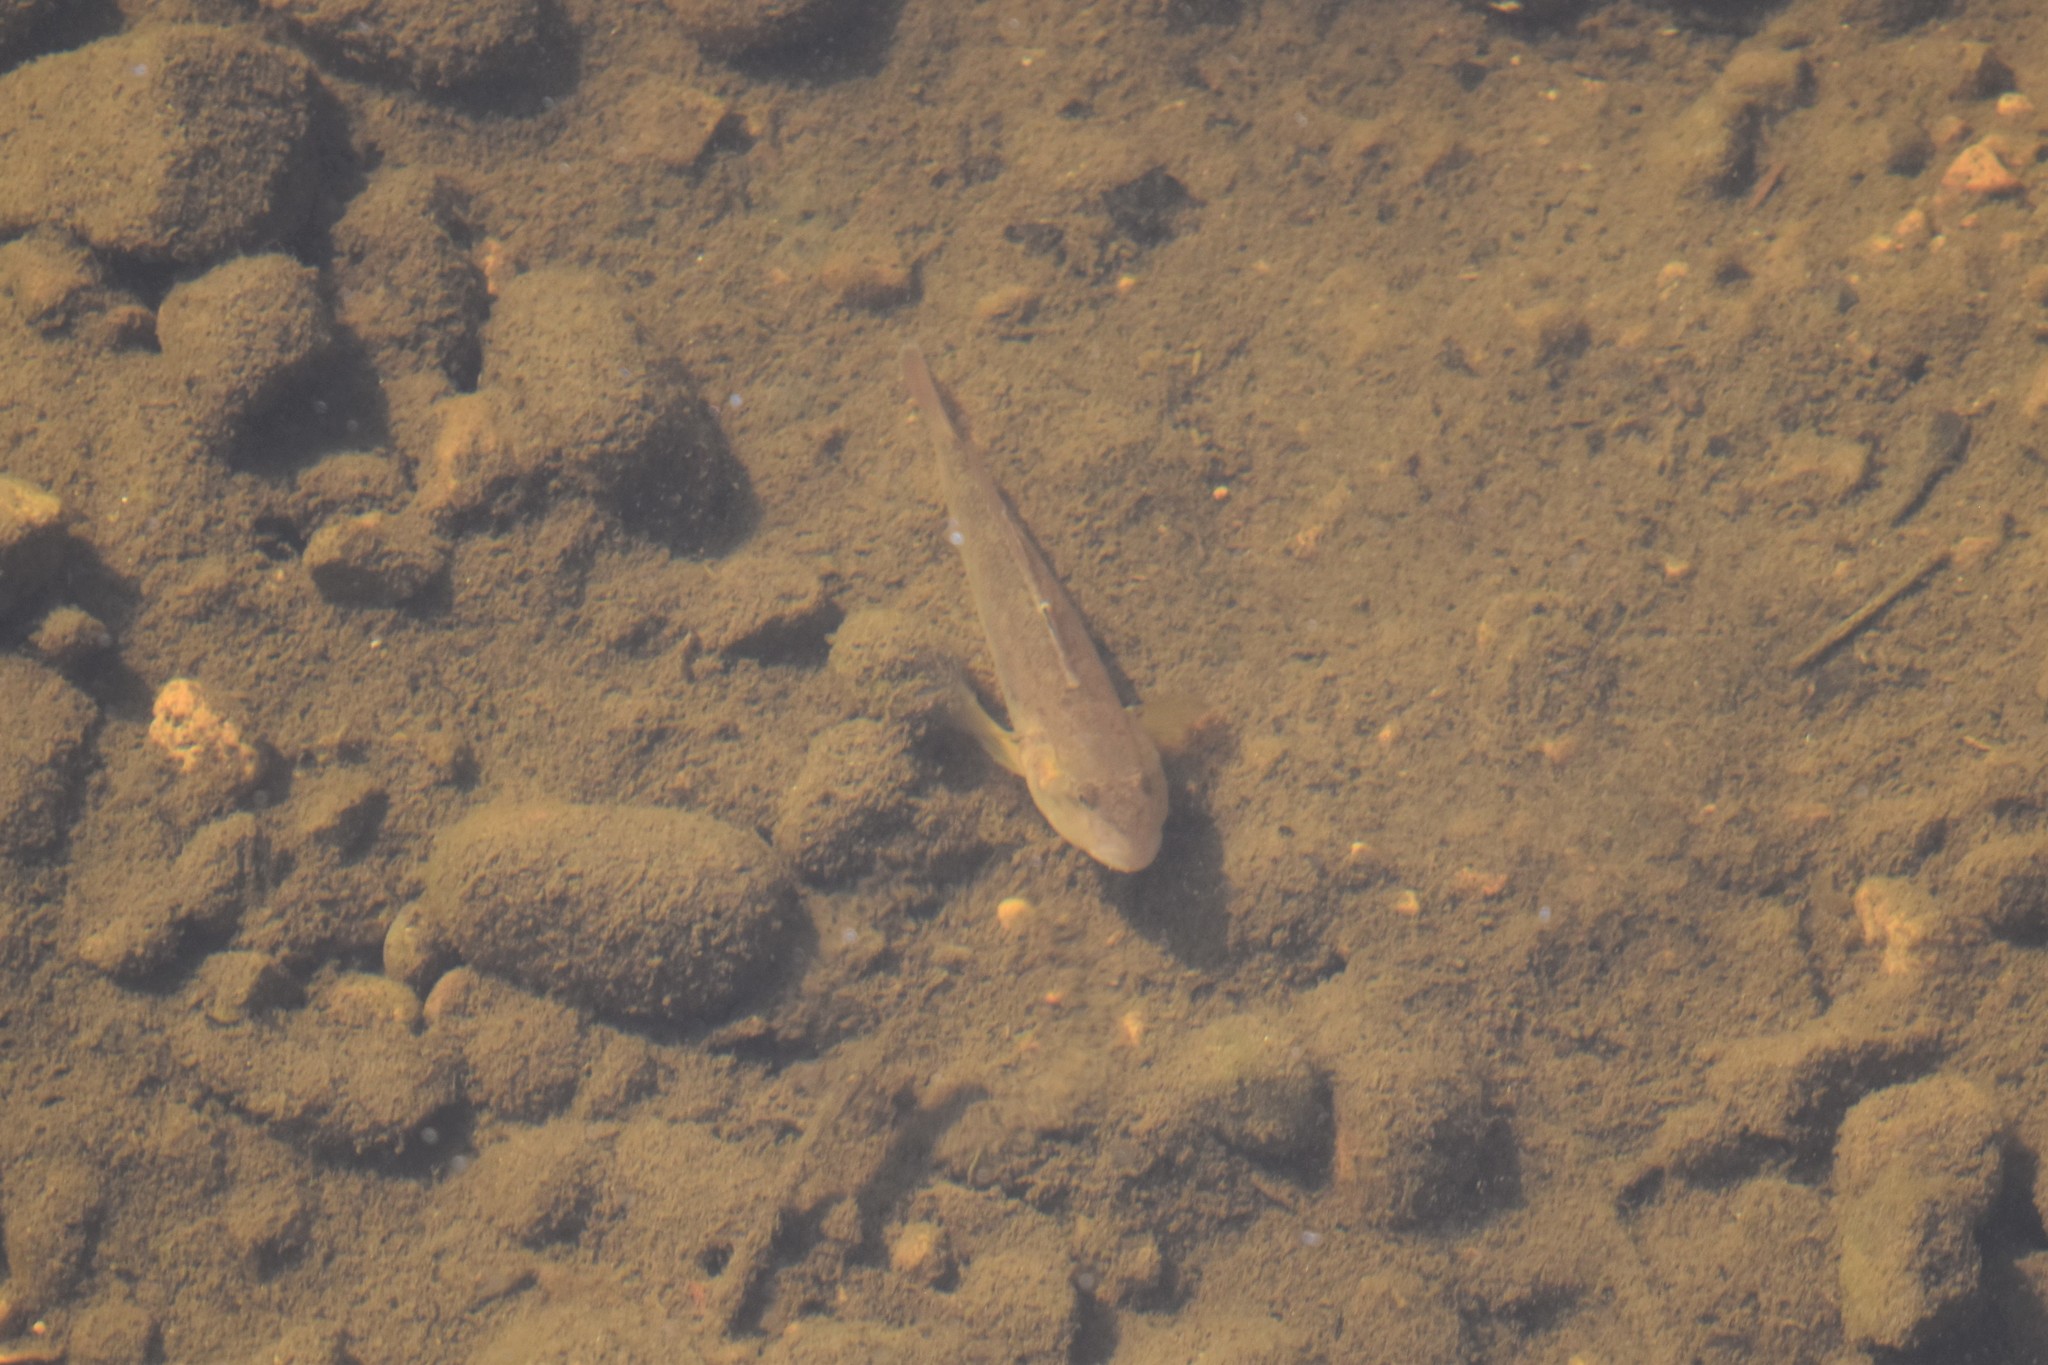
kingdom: Animalia
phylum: Chordata
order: Perciformes
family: Gobiidae
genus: Neogobius
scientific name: Neogobius melanostomus
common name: Round goby
